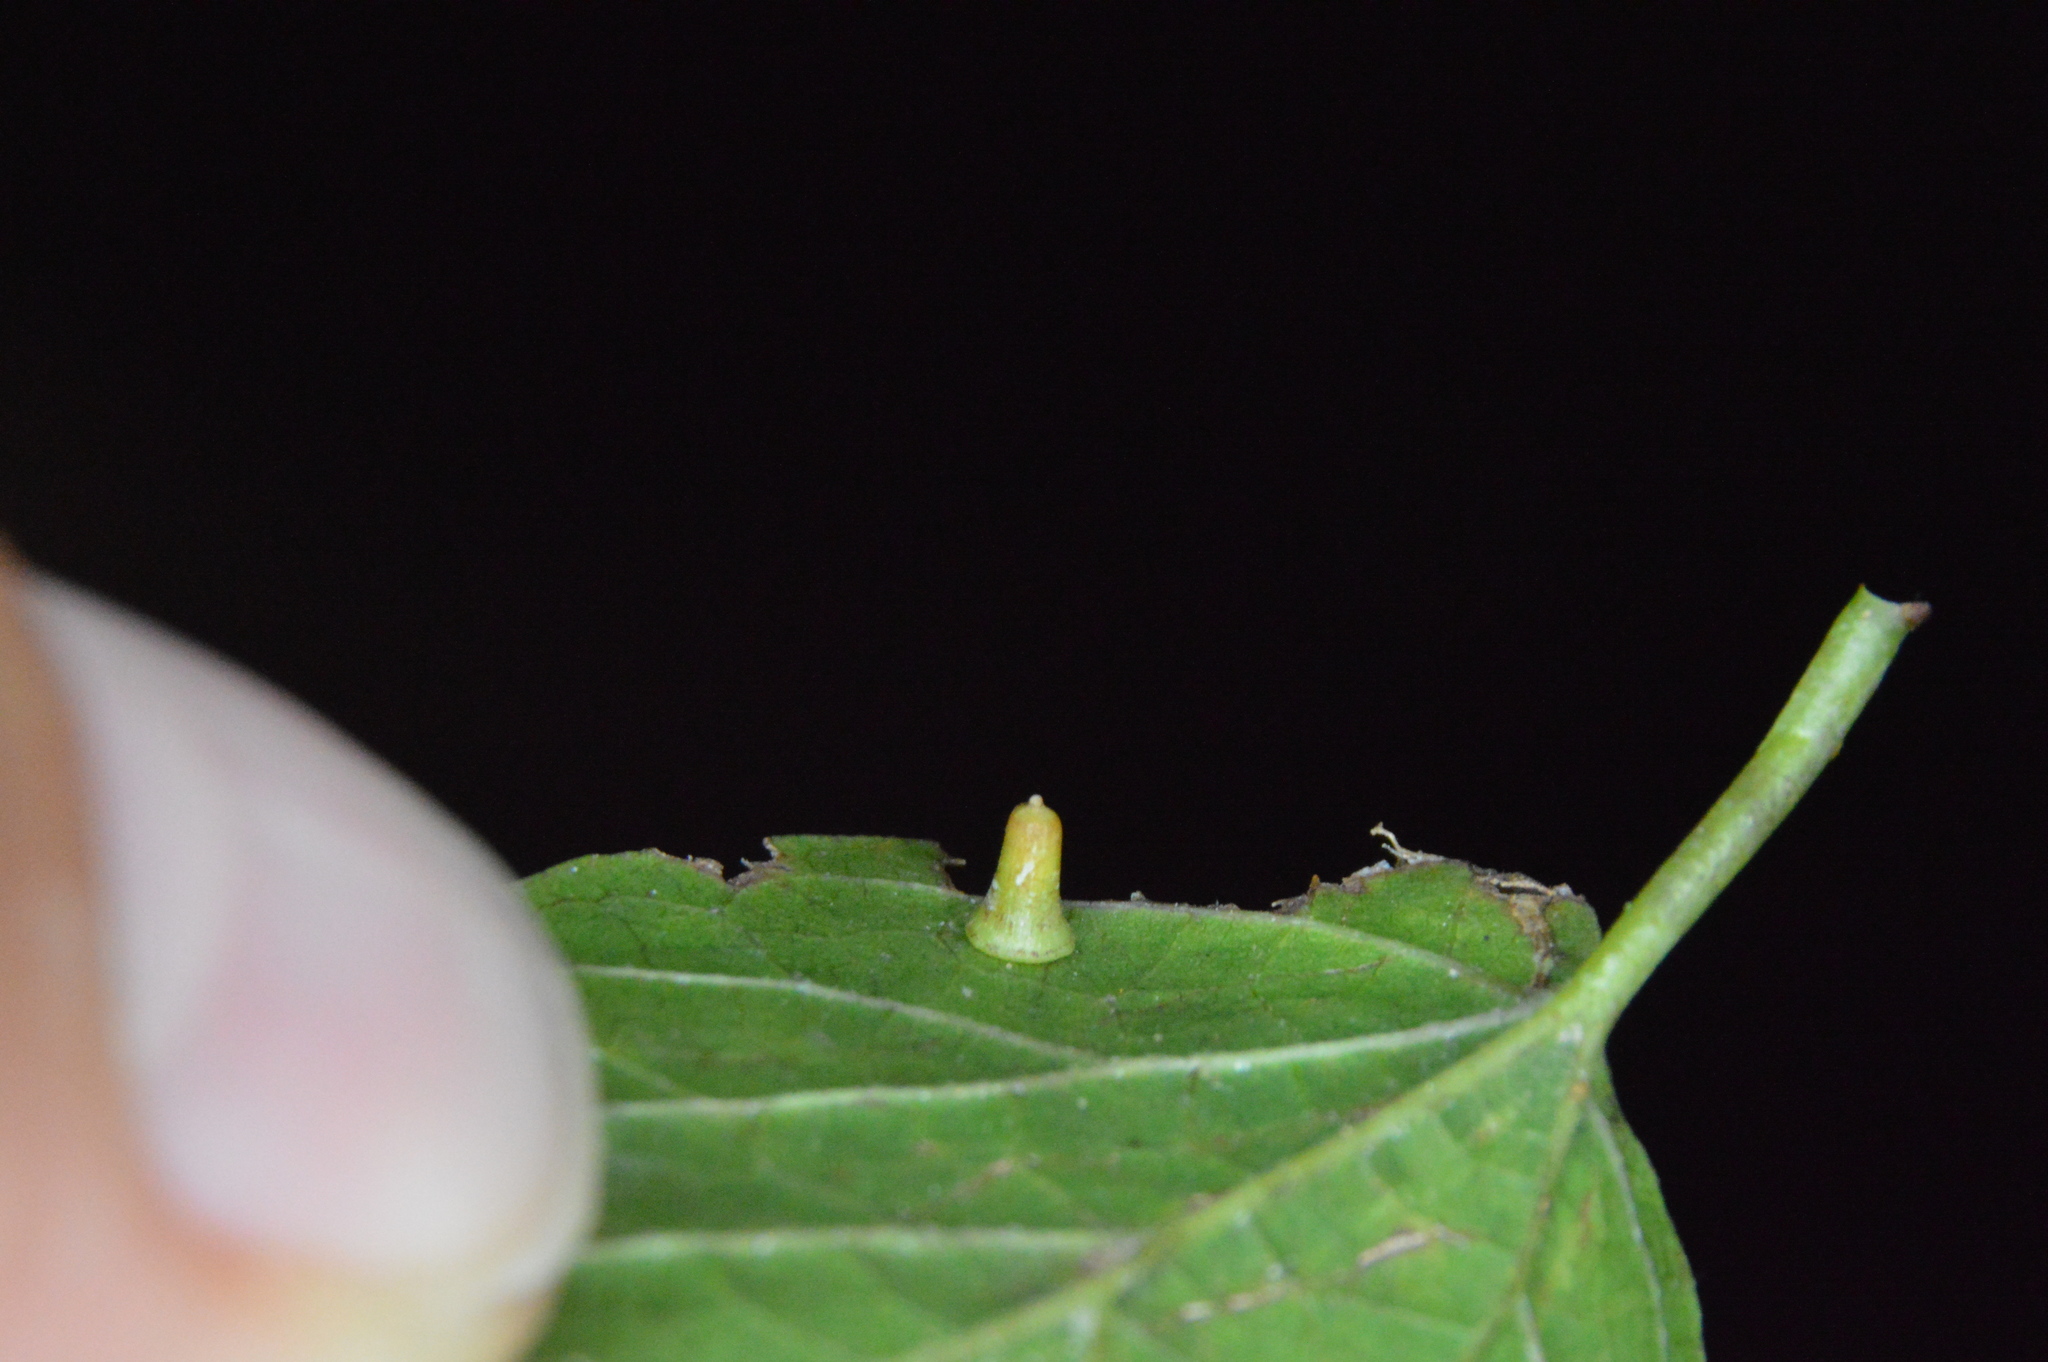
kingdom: Animalia
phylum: Arthropoda
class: Insecta
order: Diptera
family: Cecidomyiidae
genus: Celticecis
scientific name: Celticecis aciculata
